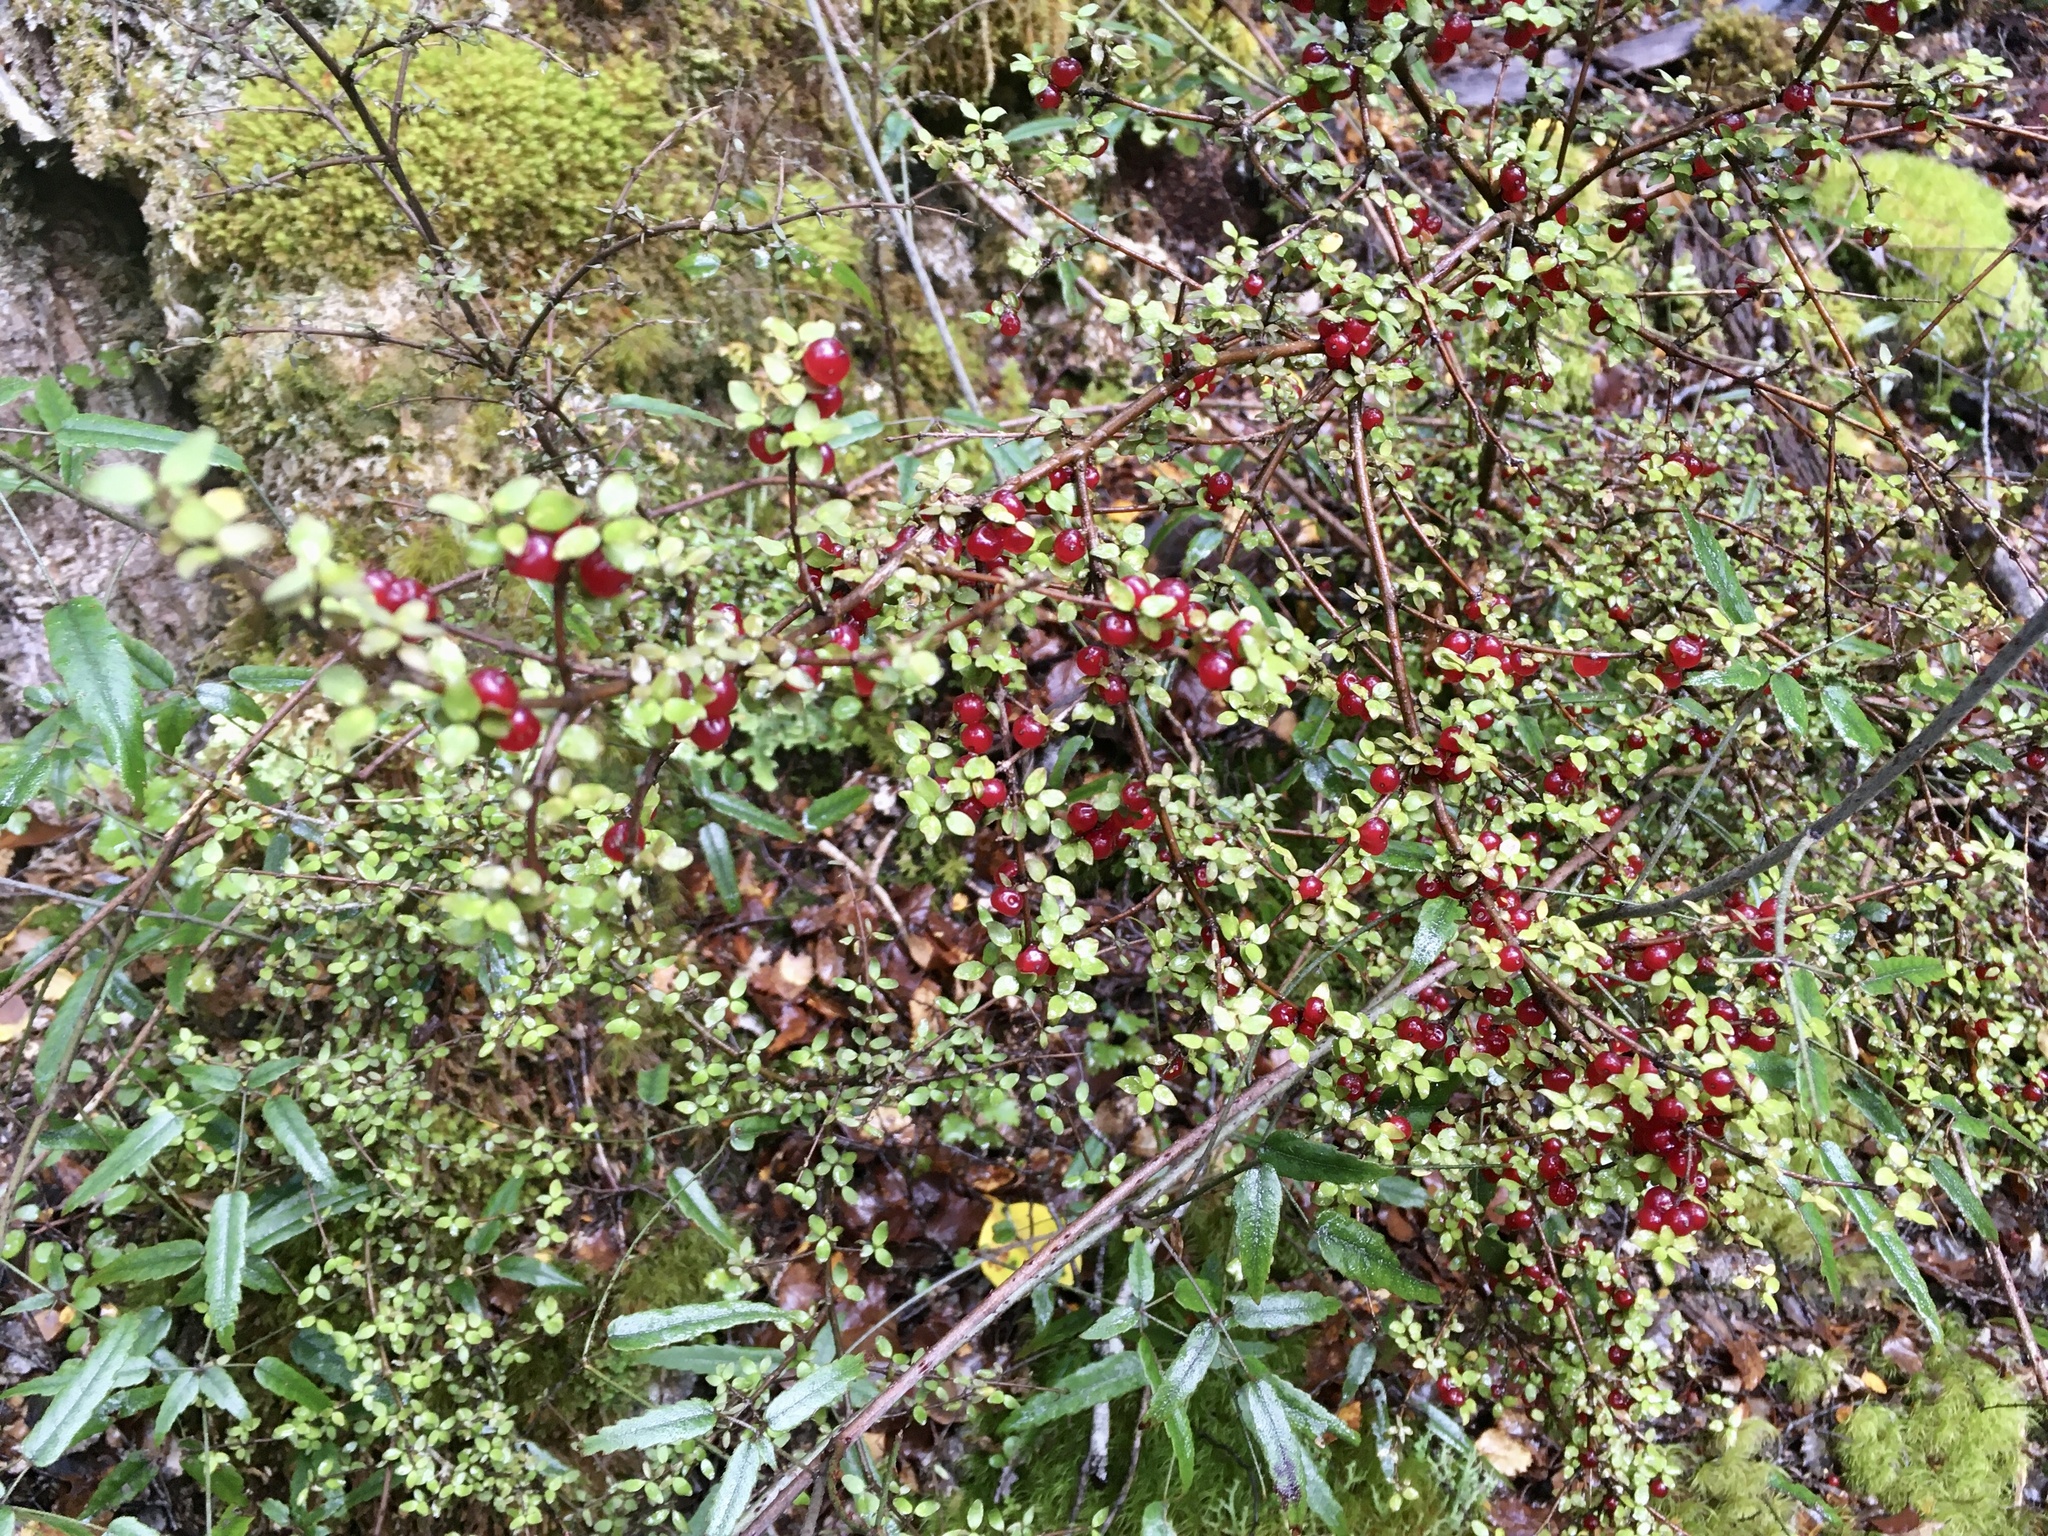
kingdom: Plantae
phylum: Tracheophyta
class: Magnoliopsida
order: Gentianales
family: Rubiaceae
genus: Coprosma
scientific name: Coprosma rhamnoides
